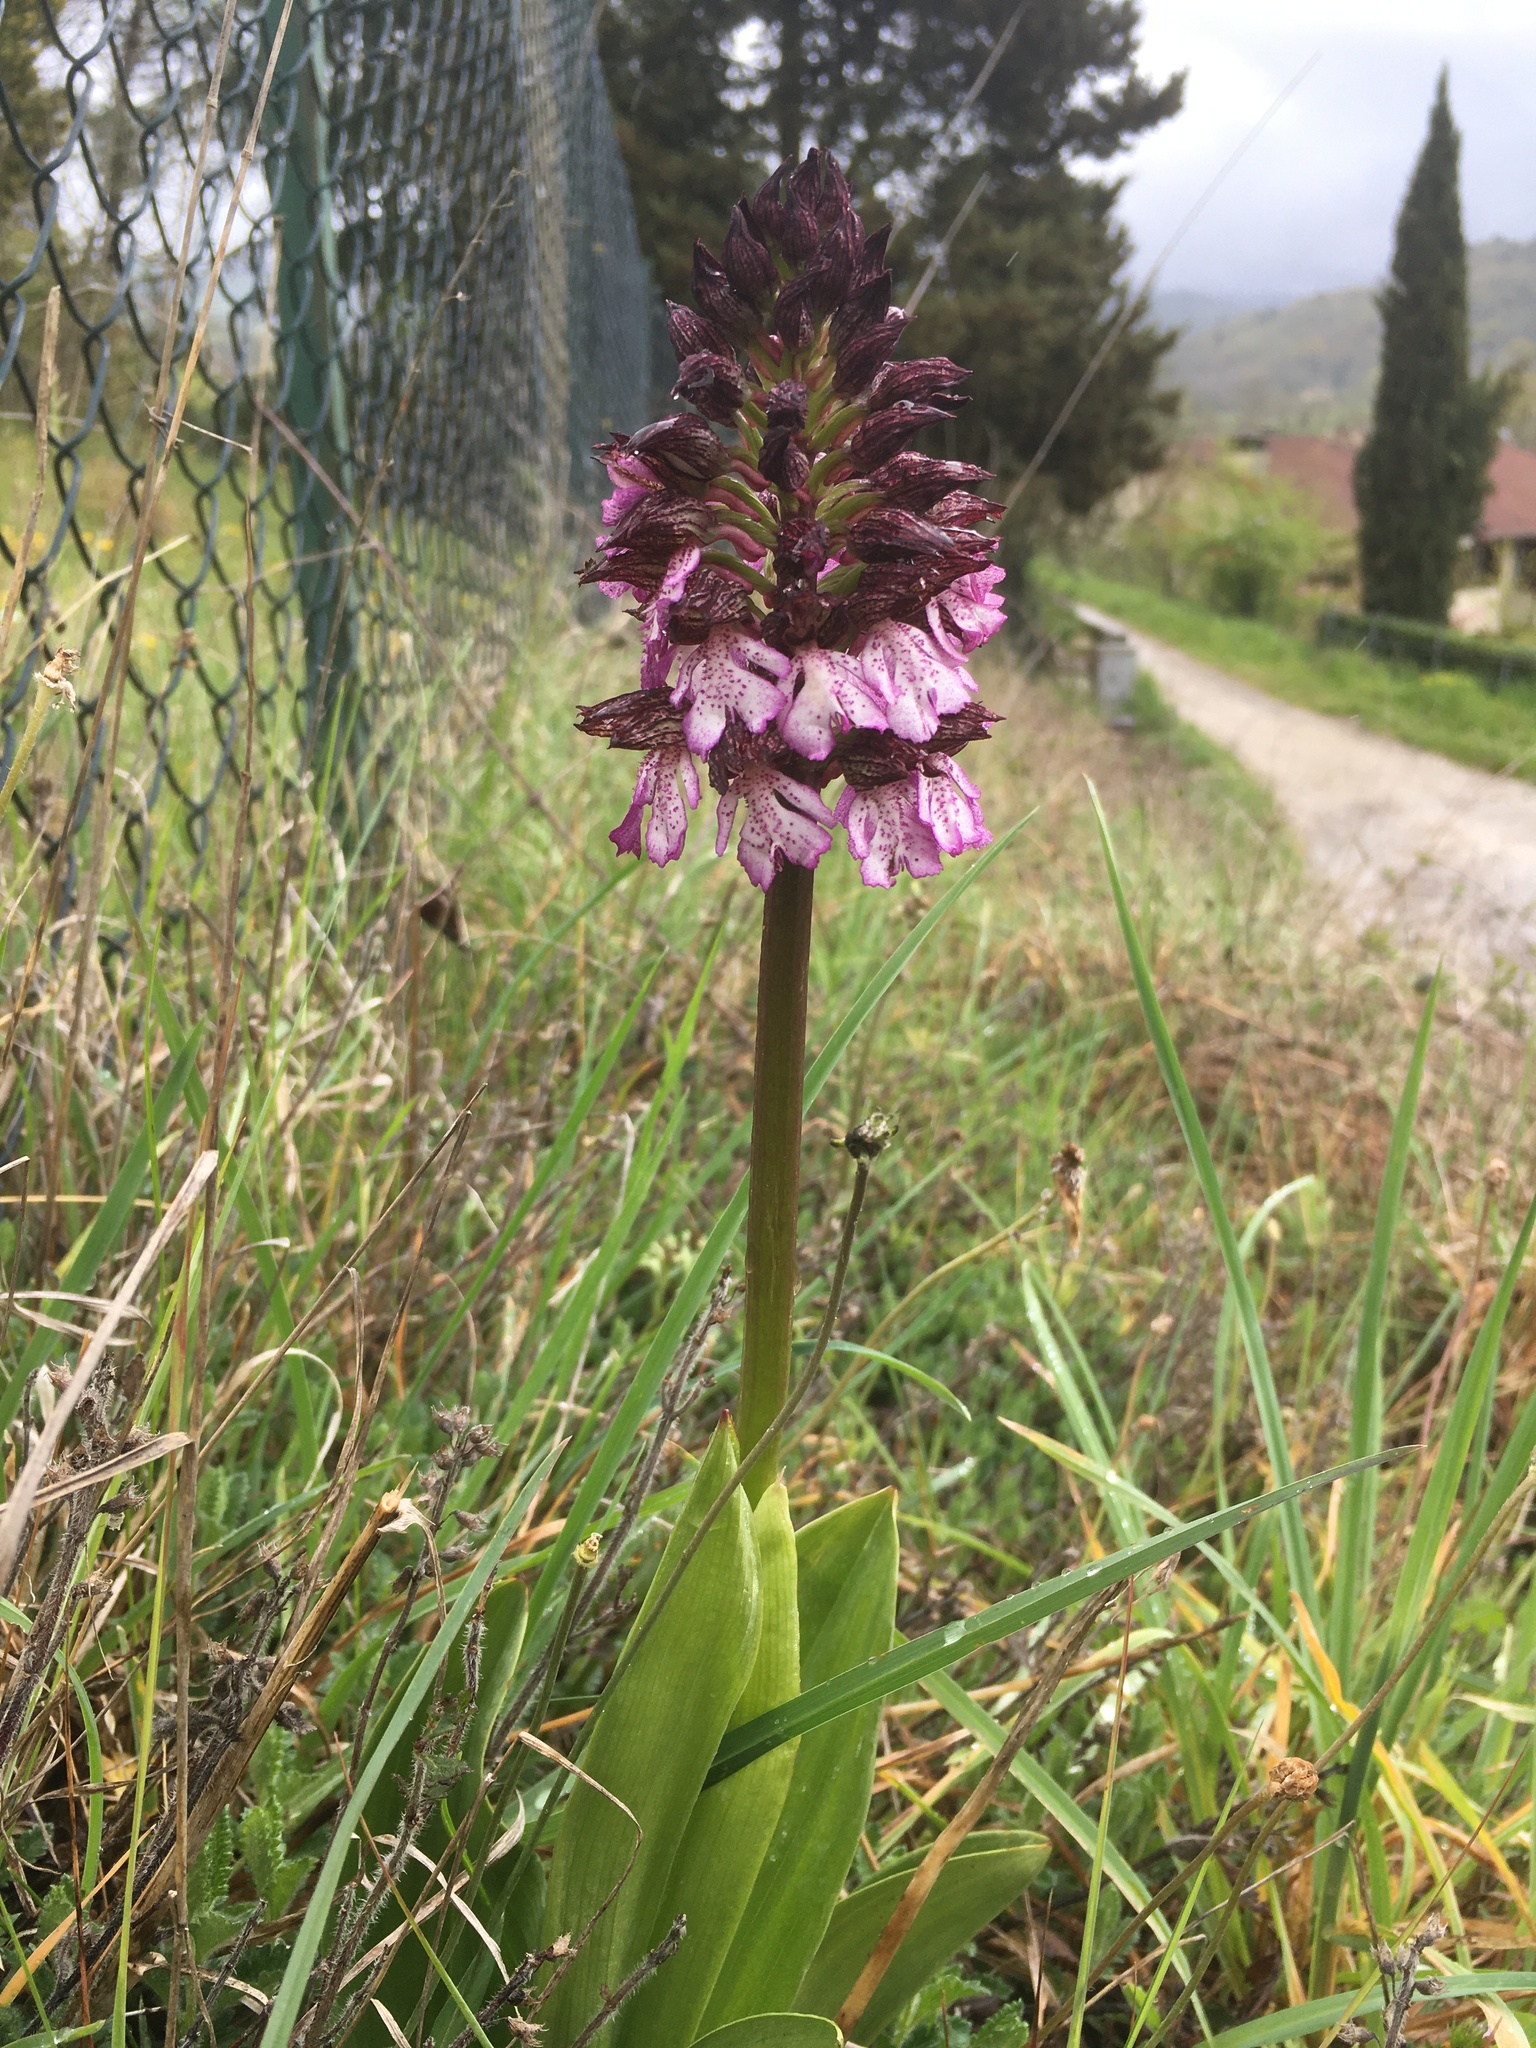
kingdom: Plantae
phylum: Tracheophyta
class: Liliopsida
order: Asparagales
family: Orchidaceae
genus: Orchis
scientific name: Orchis purpurea
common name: Lady orchid
